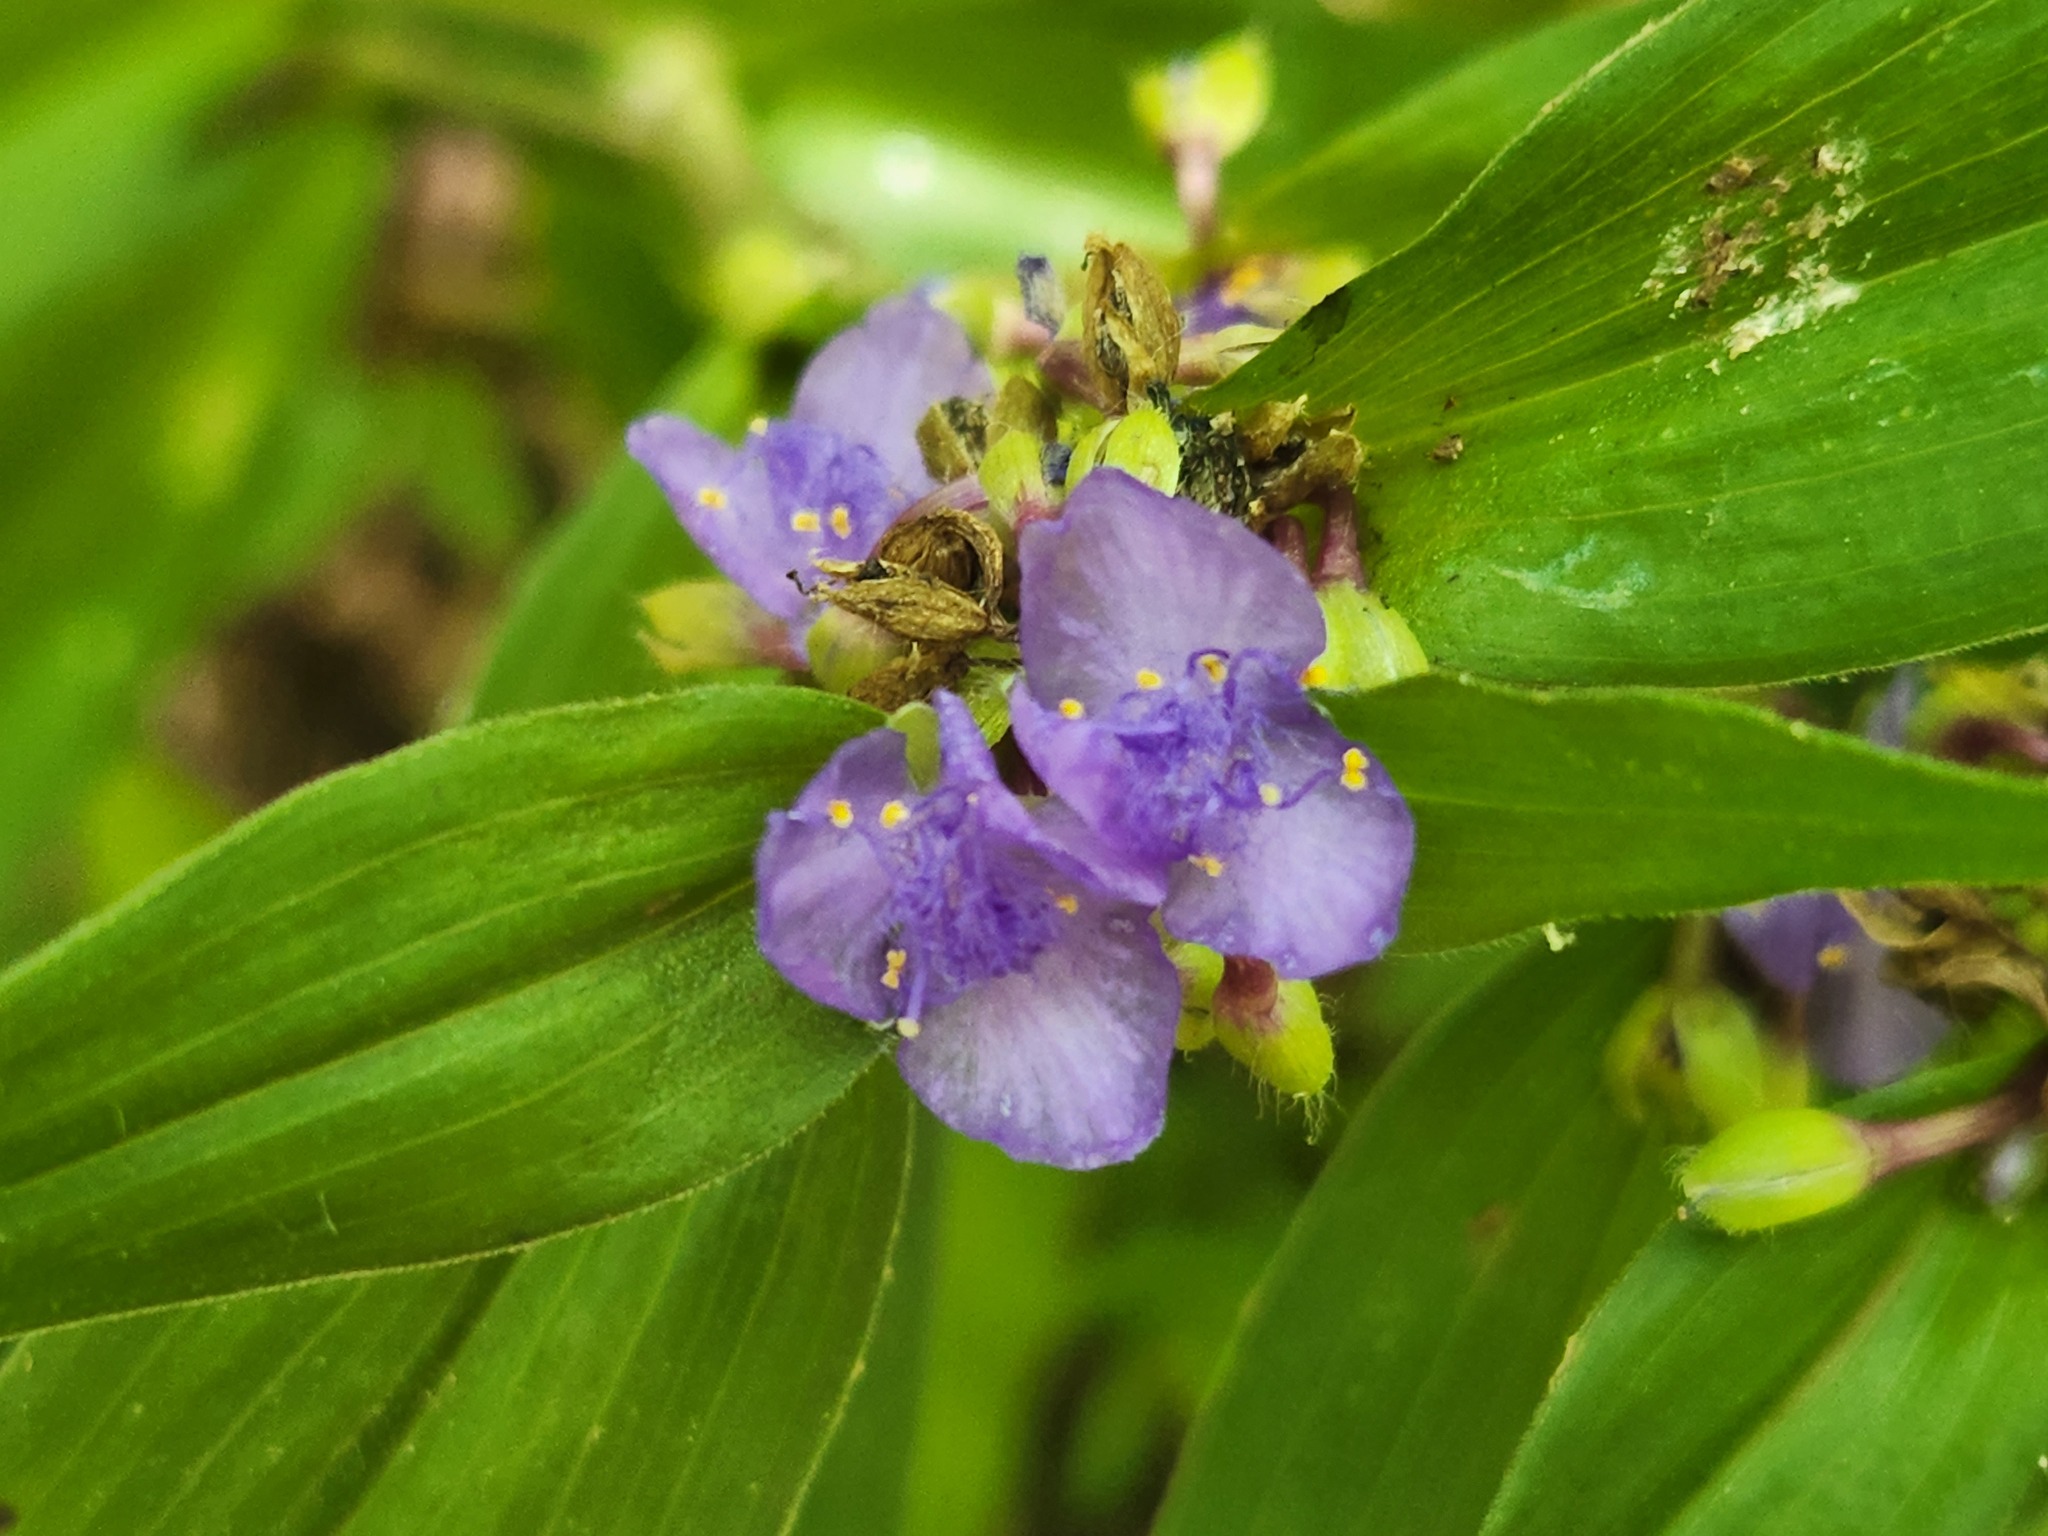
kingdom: Plantae
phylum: Tracheophyta
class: Liliopsida
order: Commelinales
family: Commelinaceae
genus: Tradescantia
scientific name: Tradescantia subaspera
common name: Wide-leaf spiderwort
